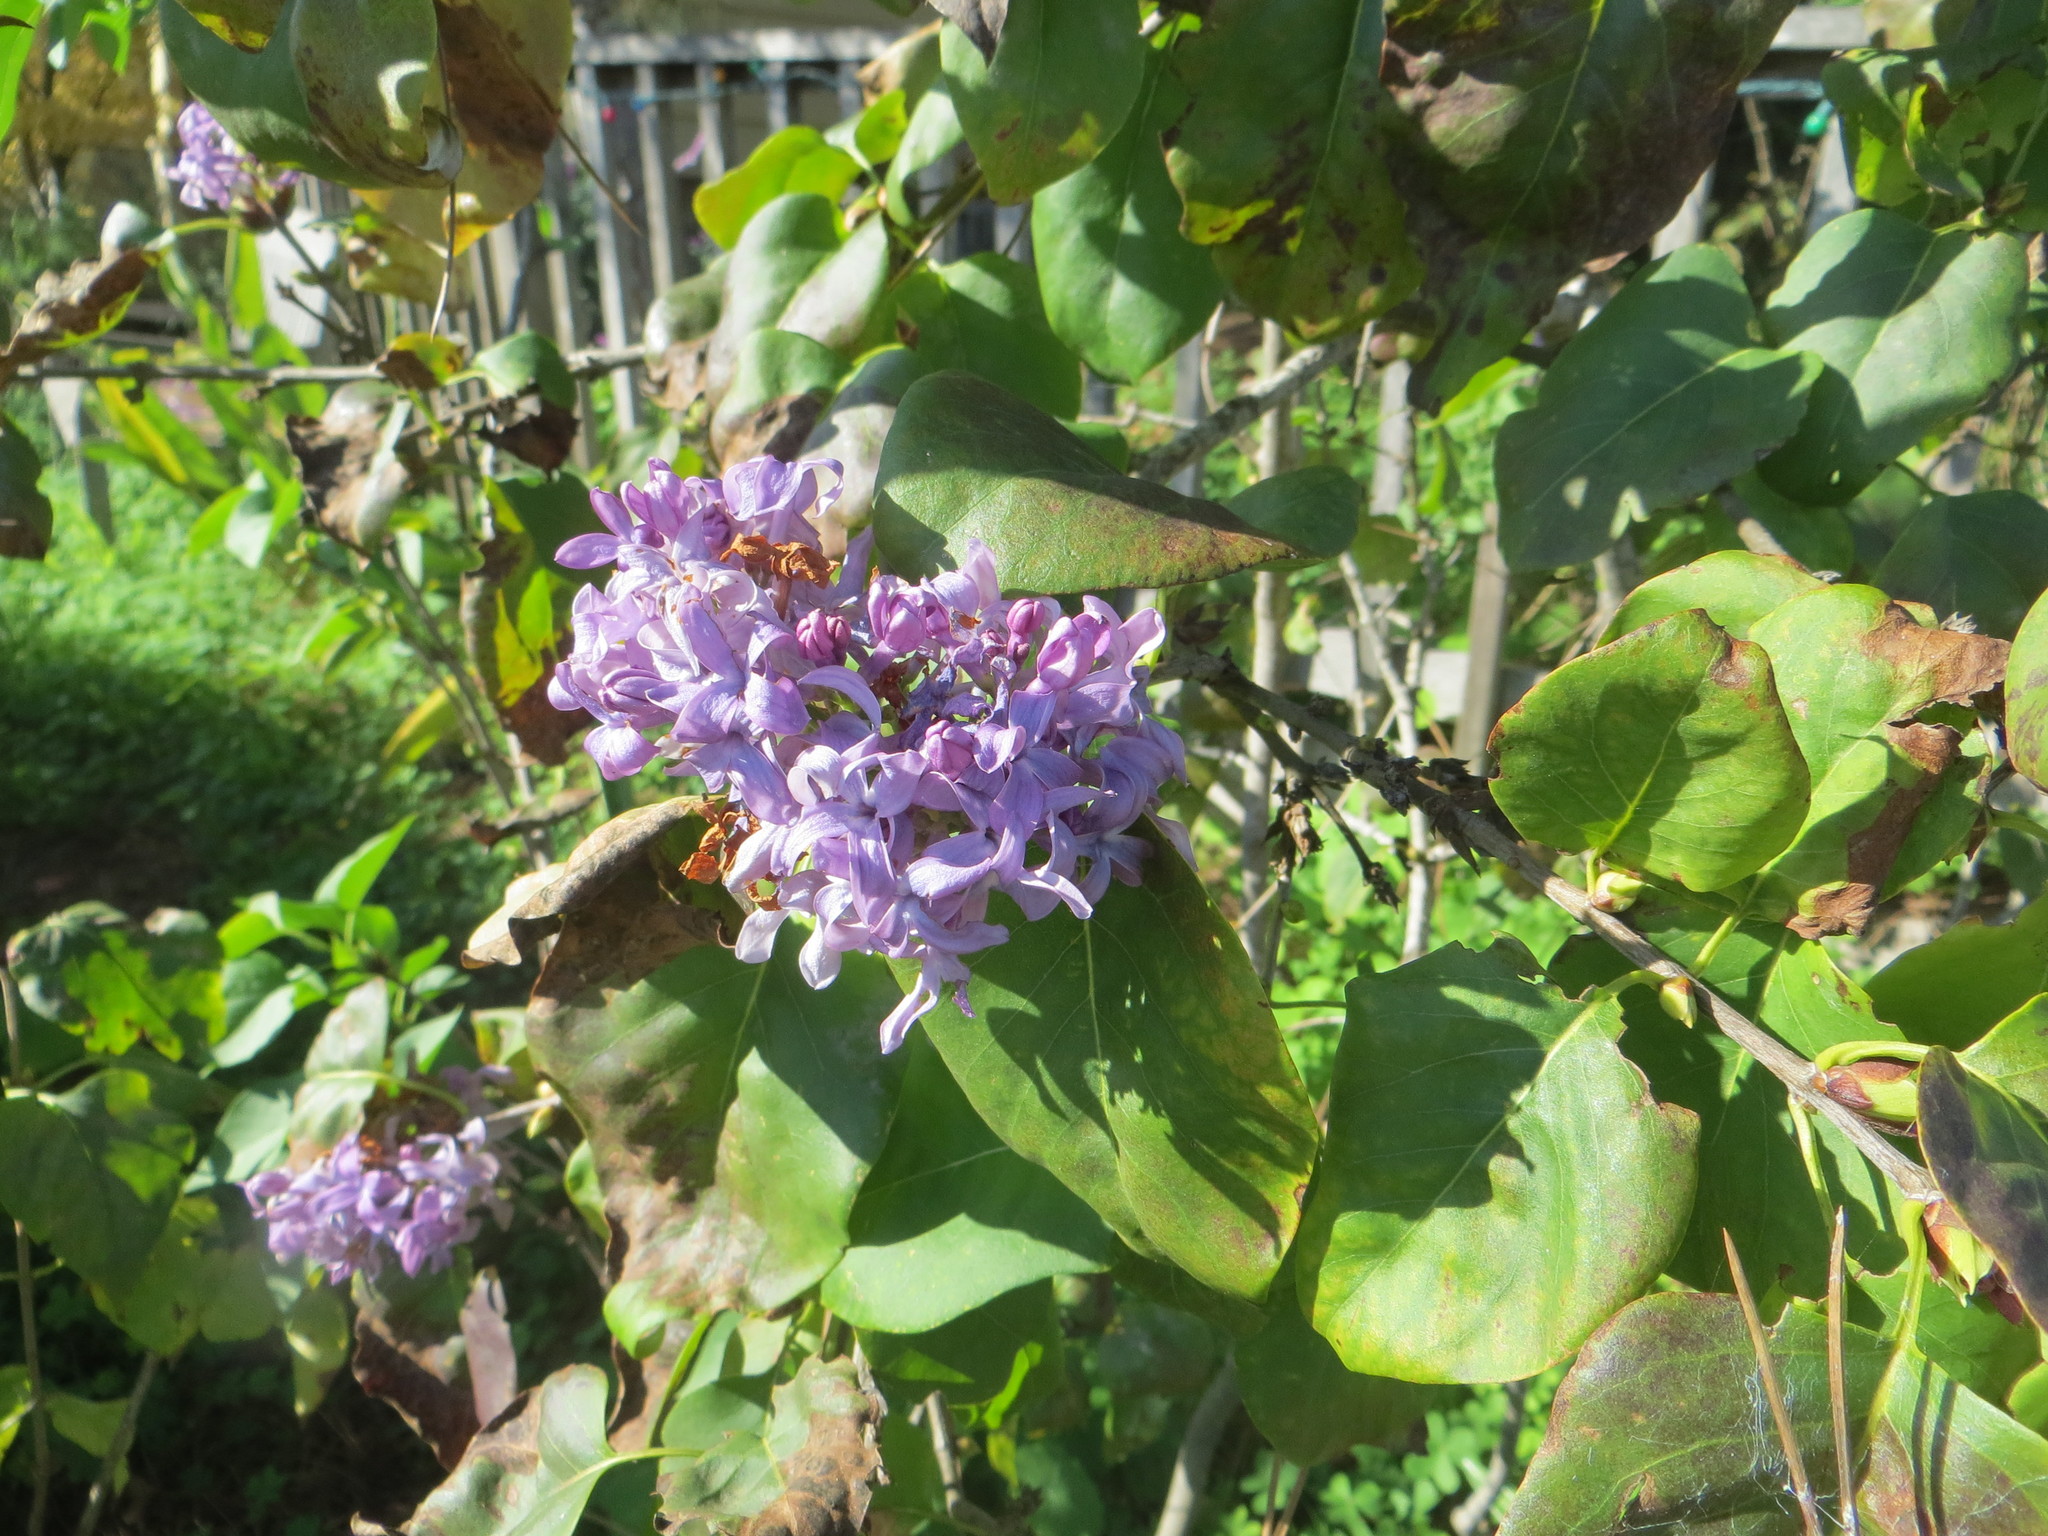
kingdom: Plantae
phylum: Tracheophyta
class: Magnoliopsida
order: Lamiales
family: Oleaceae
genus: Syringa
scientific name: Syringa vulgaris
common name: Common lilac
